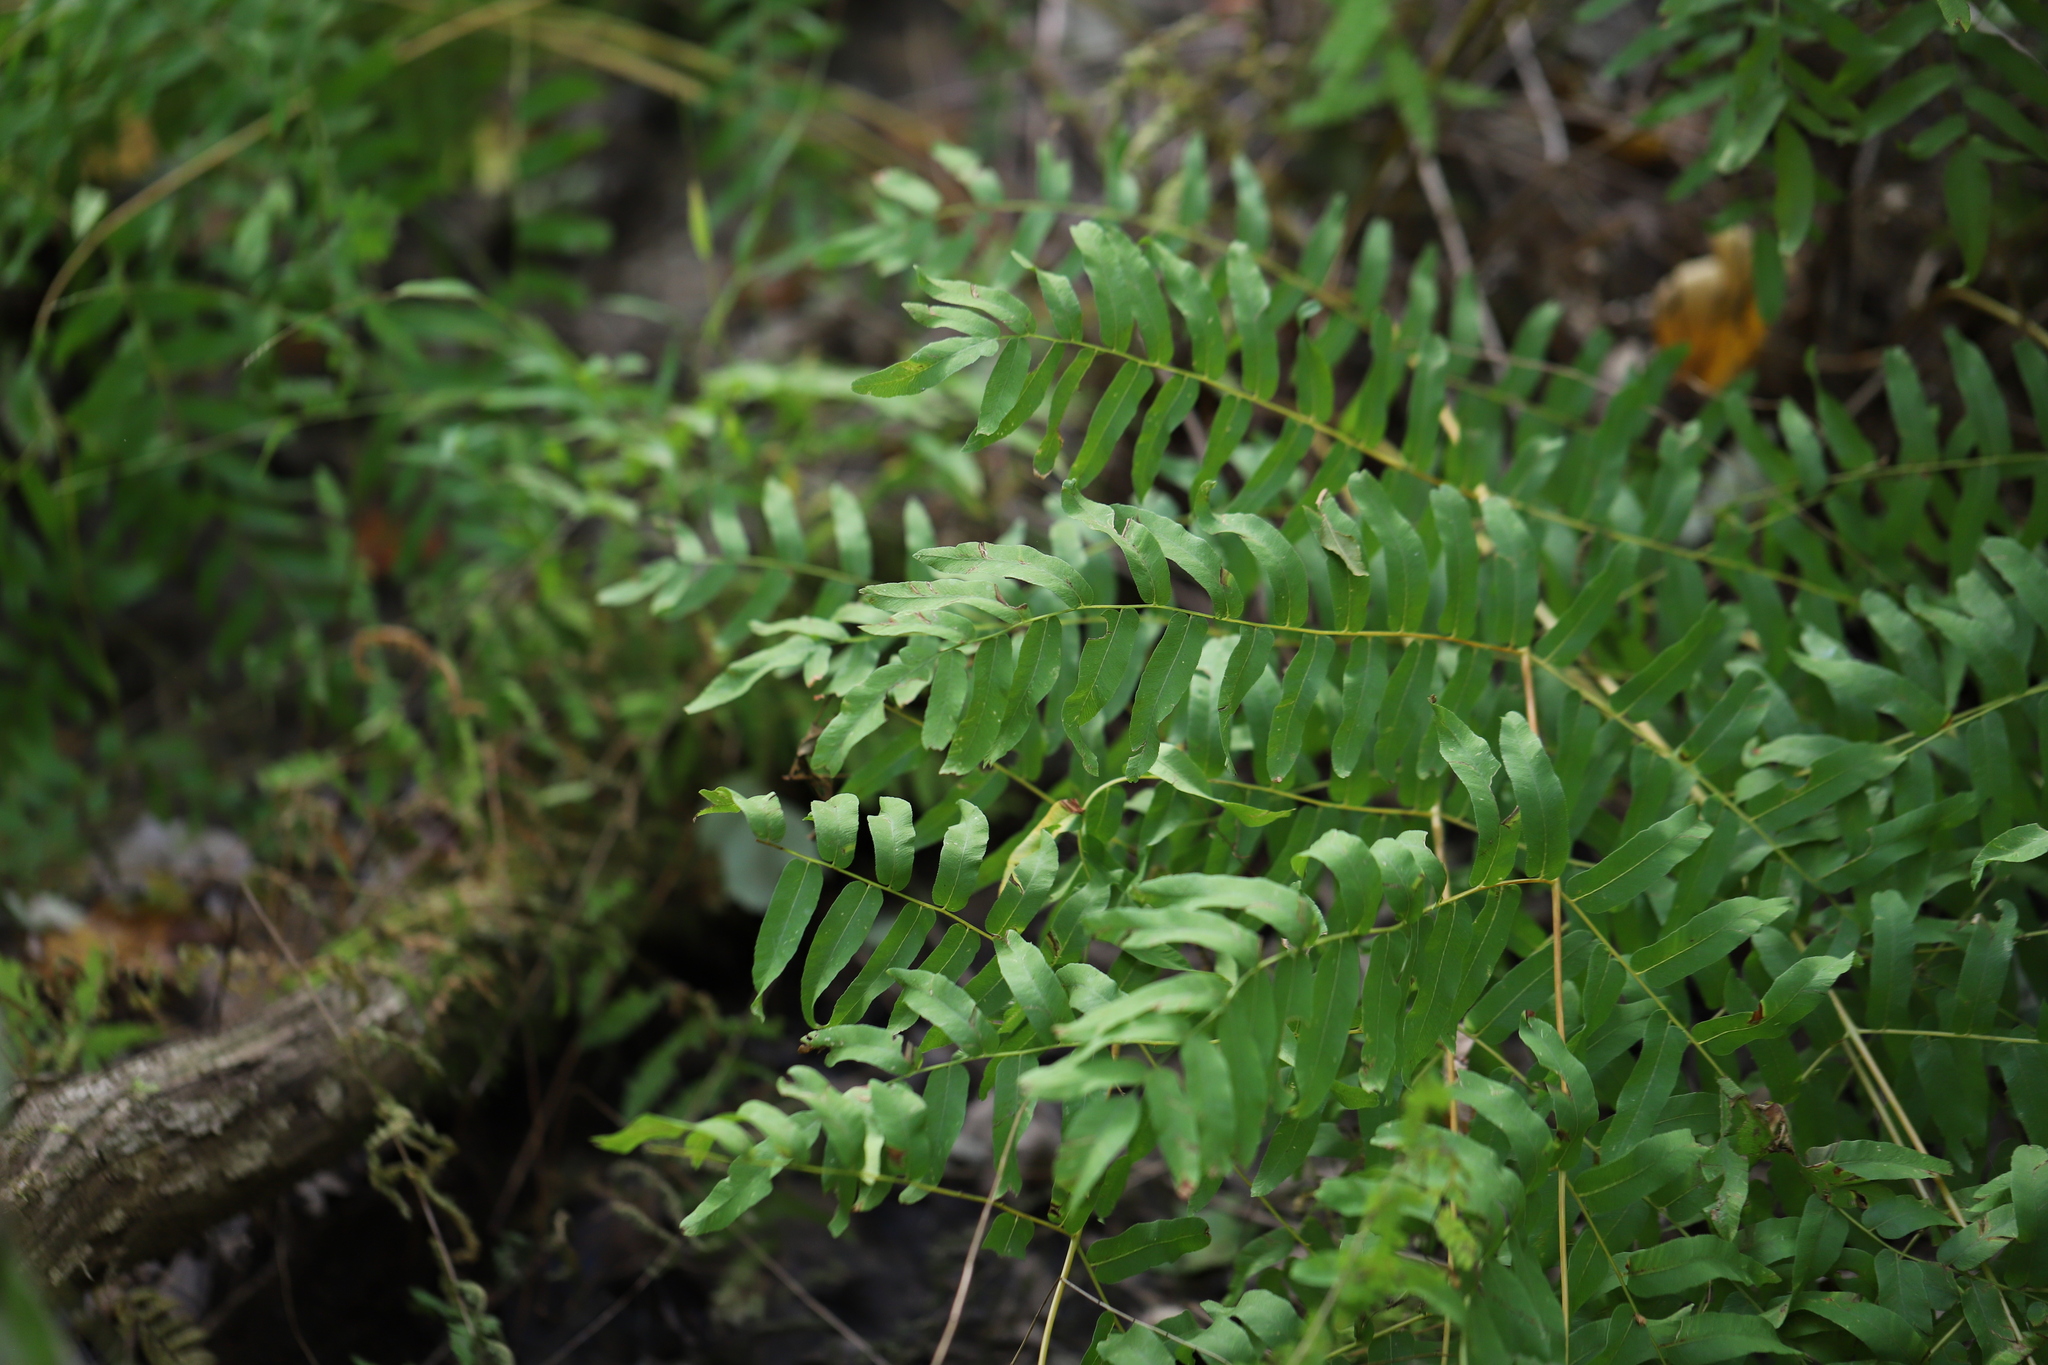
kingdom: Plantae
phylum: Tracheophyta
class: Polypodiopsida
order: Osmundales
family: Osmundaceae
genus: Osmunda
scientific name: Osmunda spectabilis
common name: American royal fern
